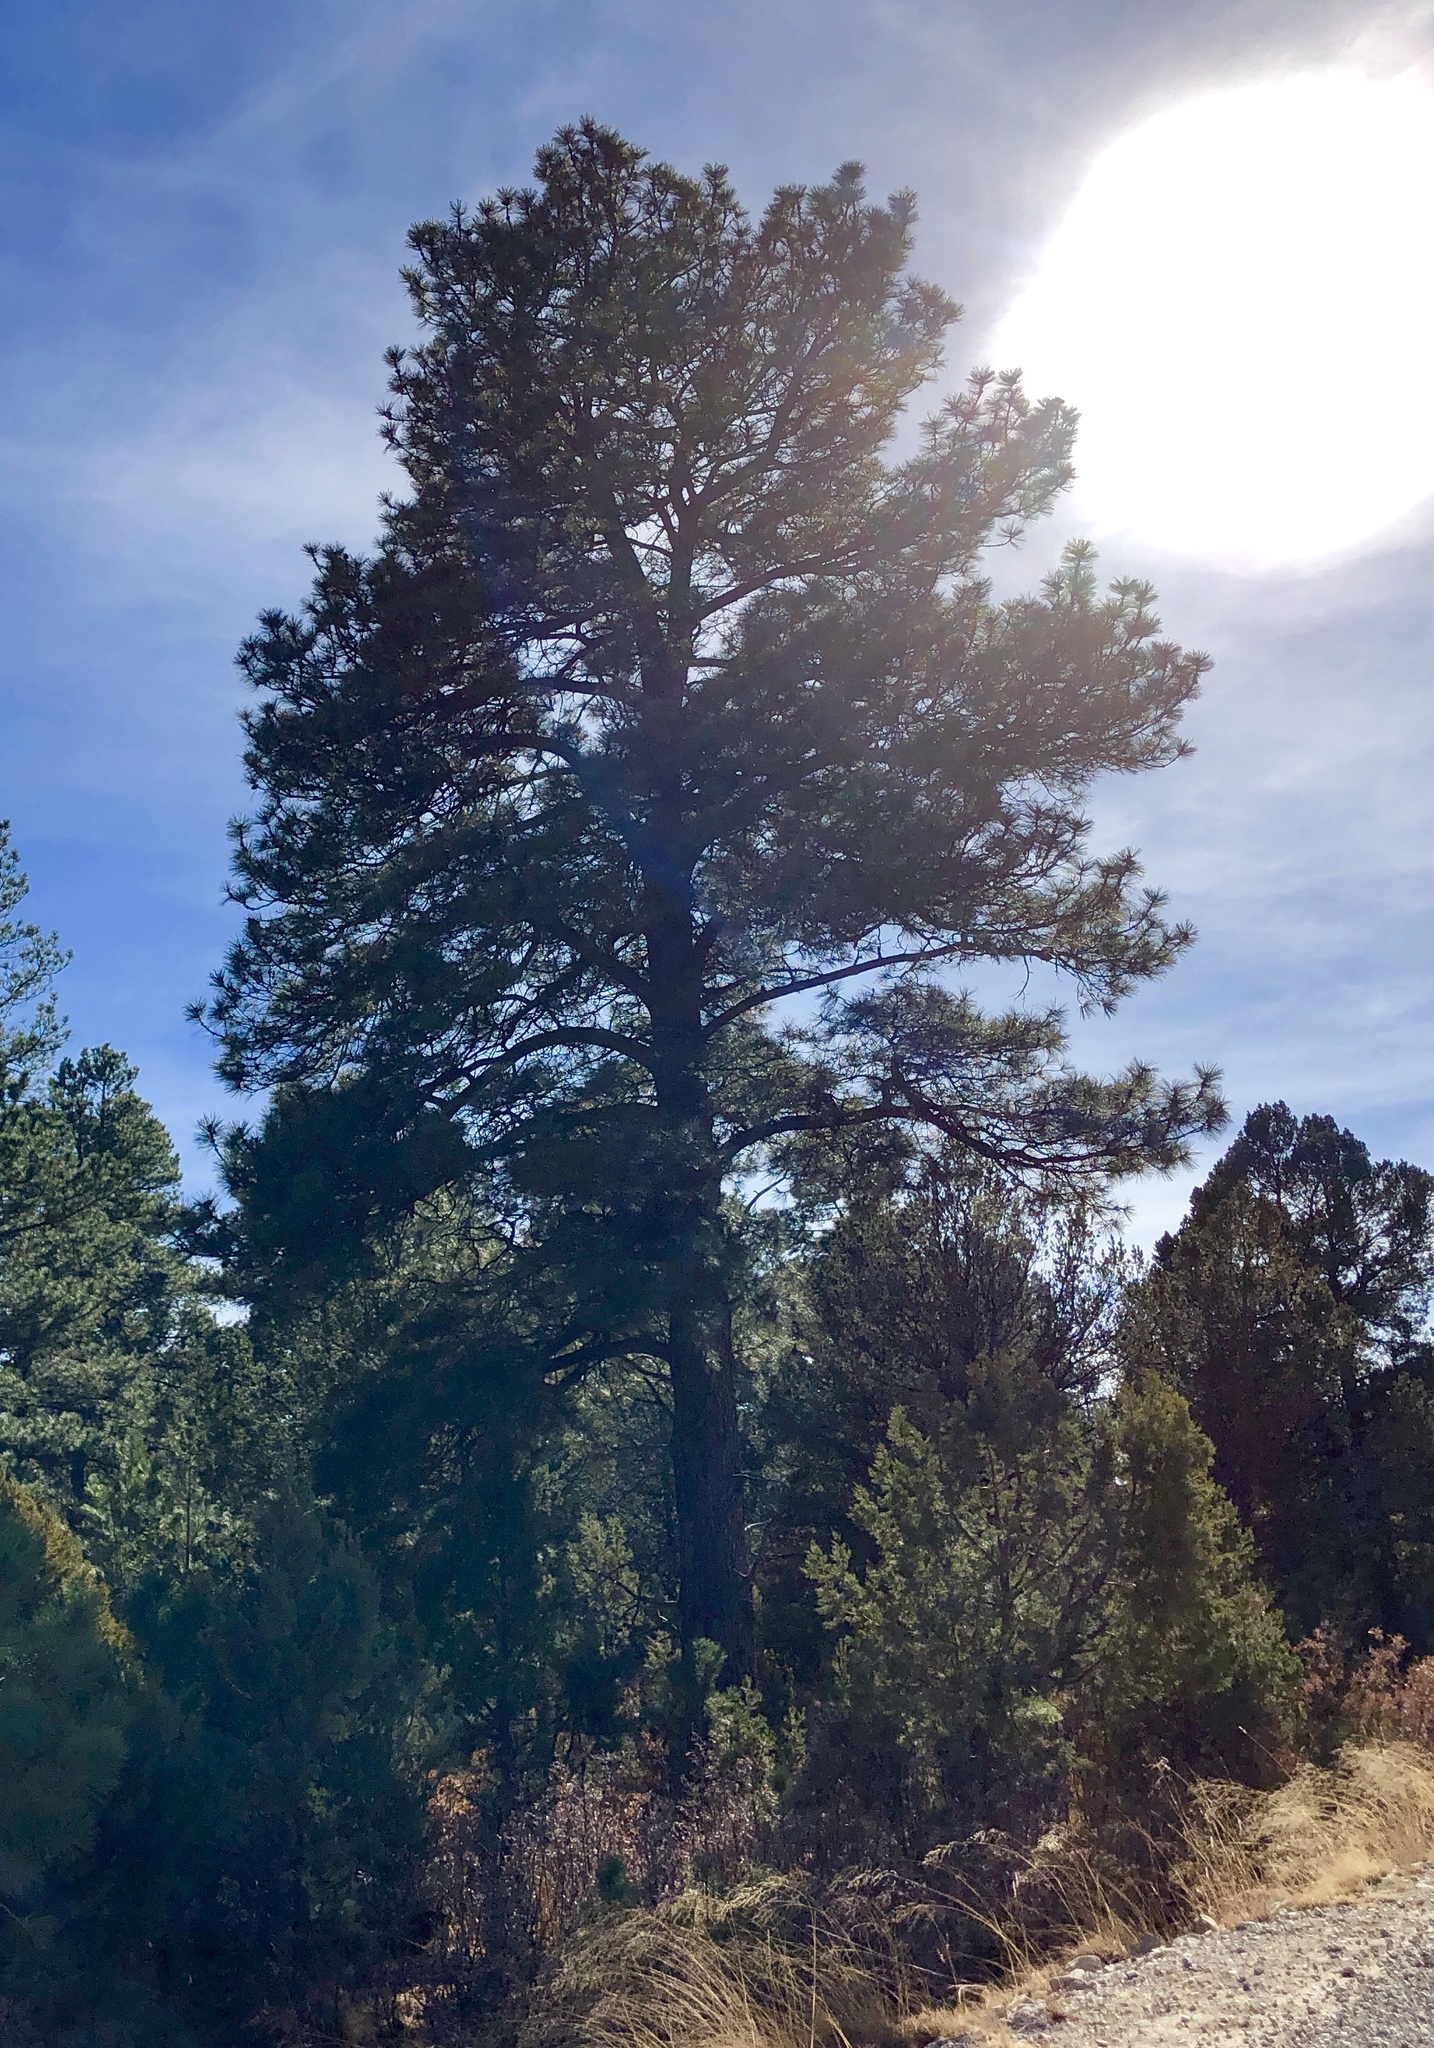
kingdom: Plantae
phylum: Tracheophyta
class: Pinopsida
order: Pinales
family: Pinaceae
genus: Pinus
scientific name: Pinus ponderosa
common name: Western yellow-pine
